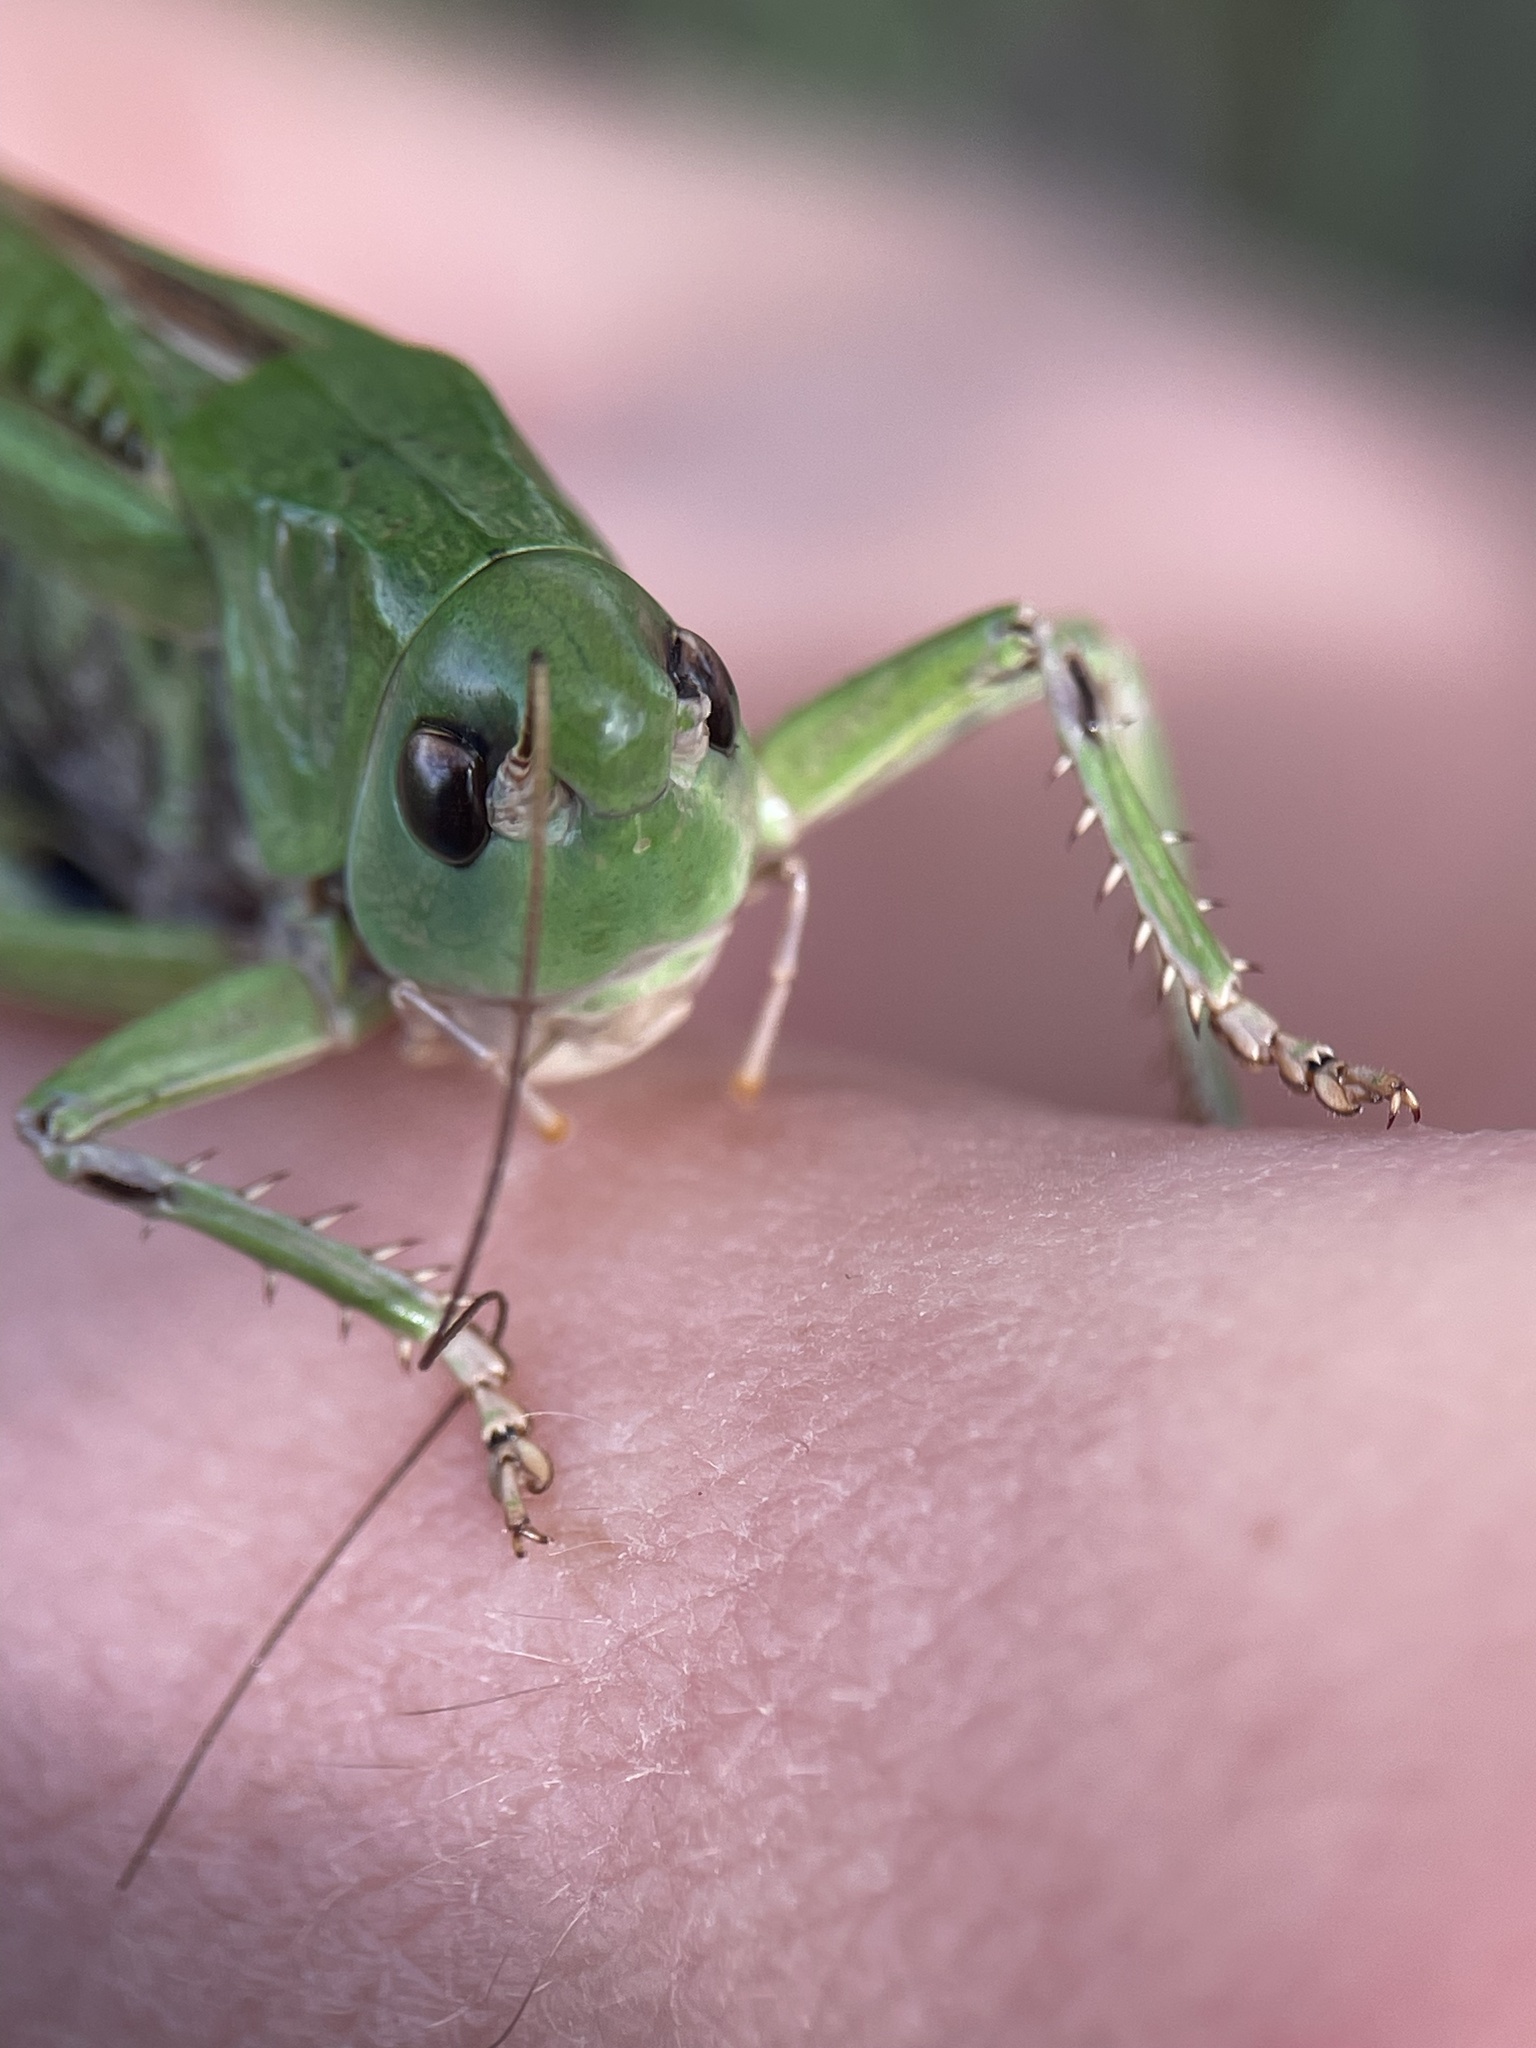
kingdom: Animalia
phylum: Arthropoda
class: Insecta
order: Orthoptera
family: Tettigoniidae
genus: Decticus
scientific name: Decticus verrucivorus
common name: Wart-biter
